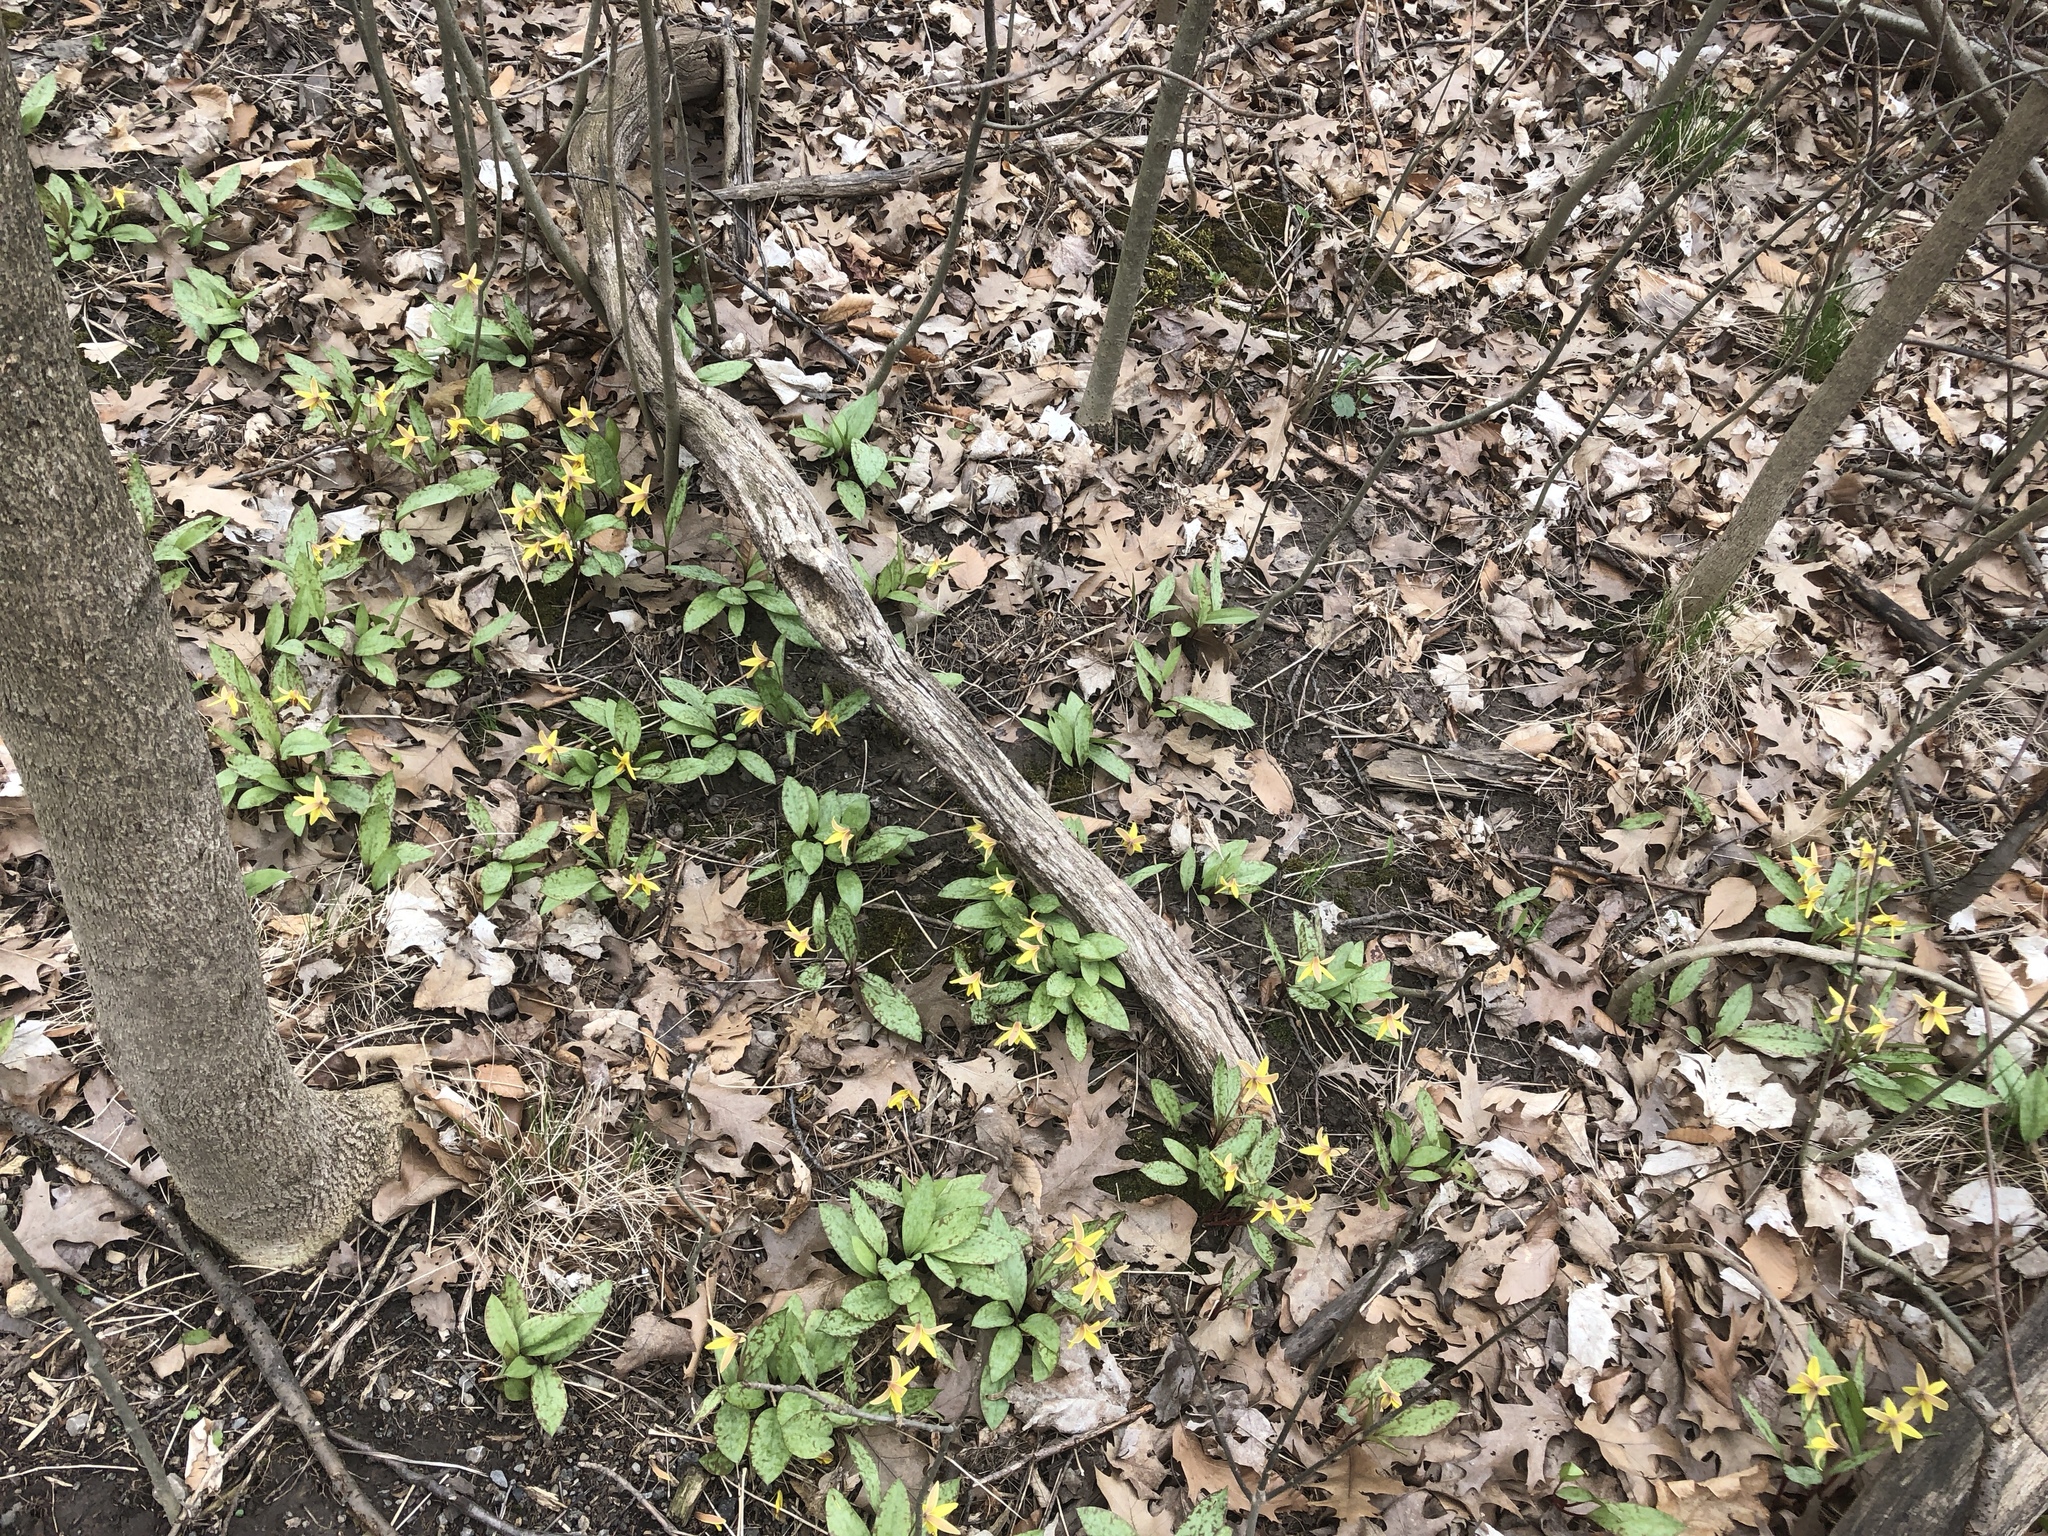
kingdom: Plantae
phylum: Tracheophyta
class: Liliopsida
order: Liliales
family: Liliaceae
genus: Erythronium
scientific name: Erythronium americanum
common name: Yellow adder's-tongue
